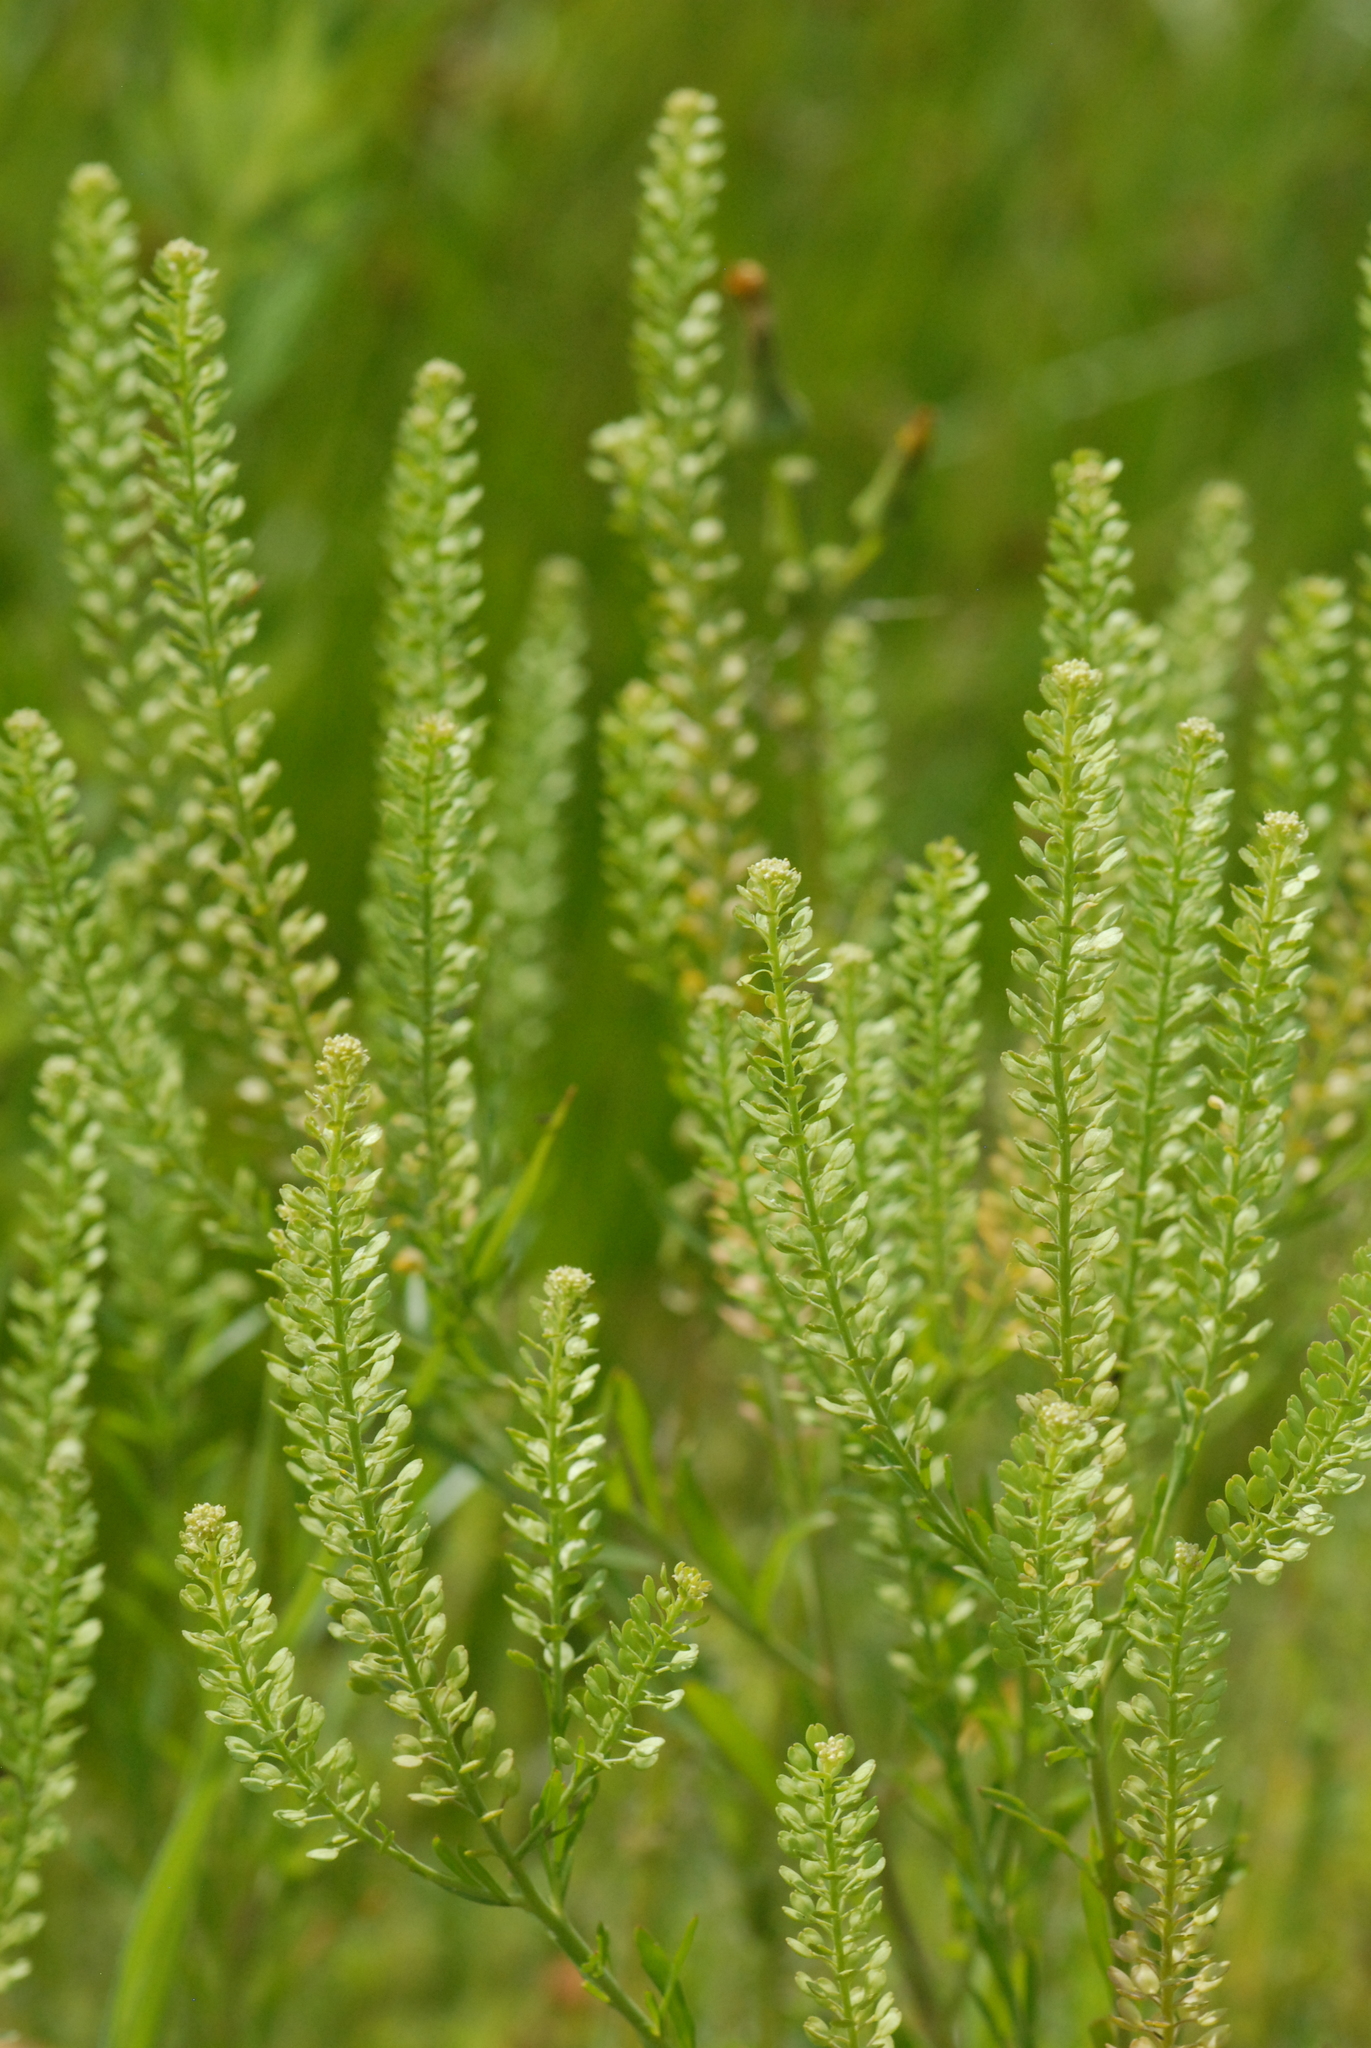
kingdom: Plantae
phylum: Tracheophyta
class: Magnoliopsida
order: Brassicales
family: Brassicaceae
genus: Lepidium
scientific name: Lepidium densiflorum
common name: Miner's pepperwort
